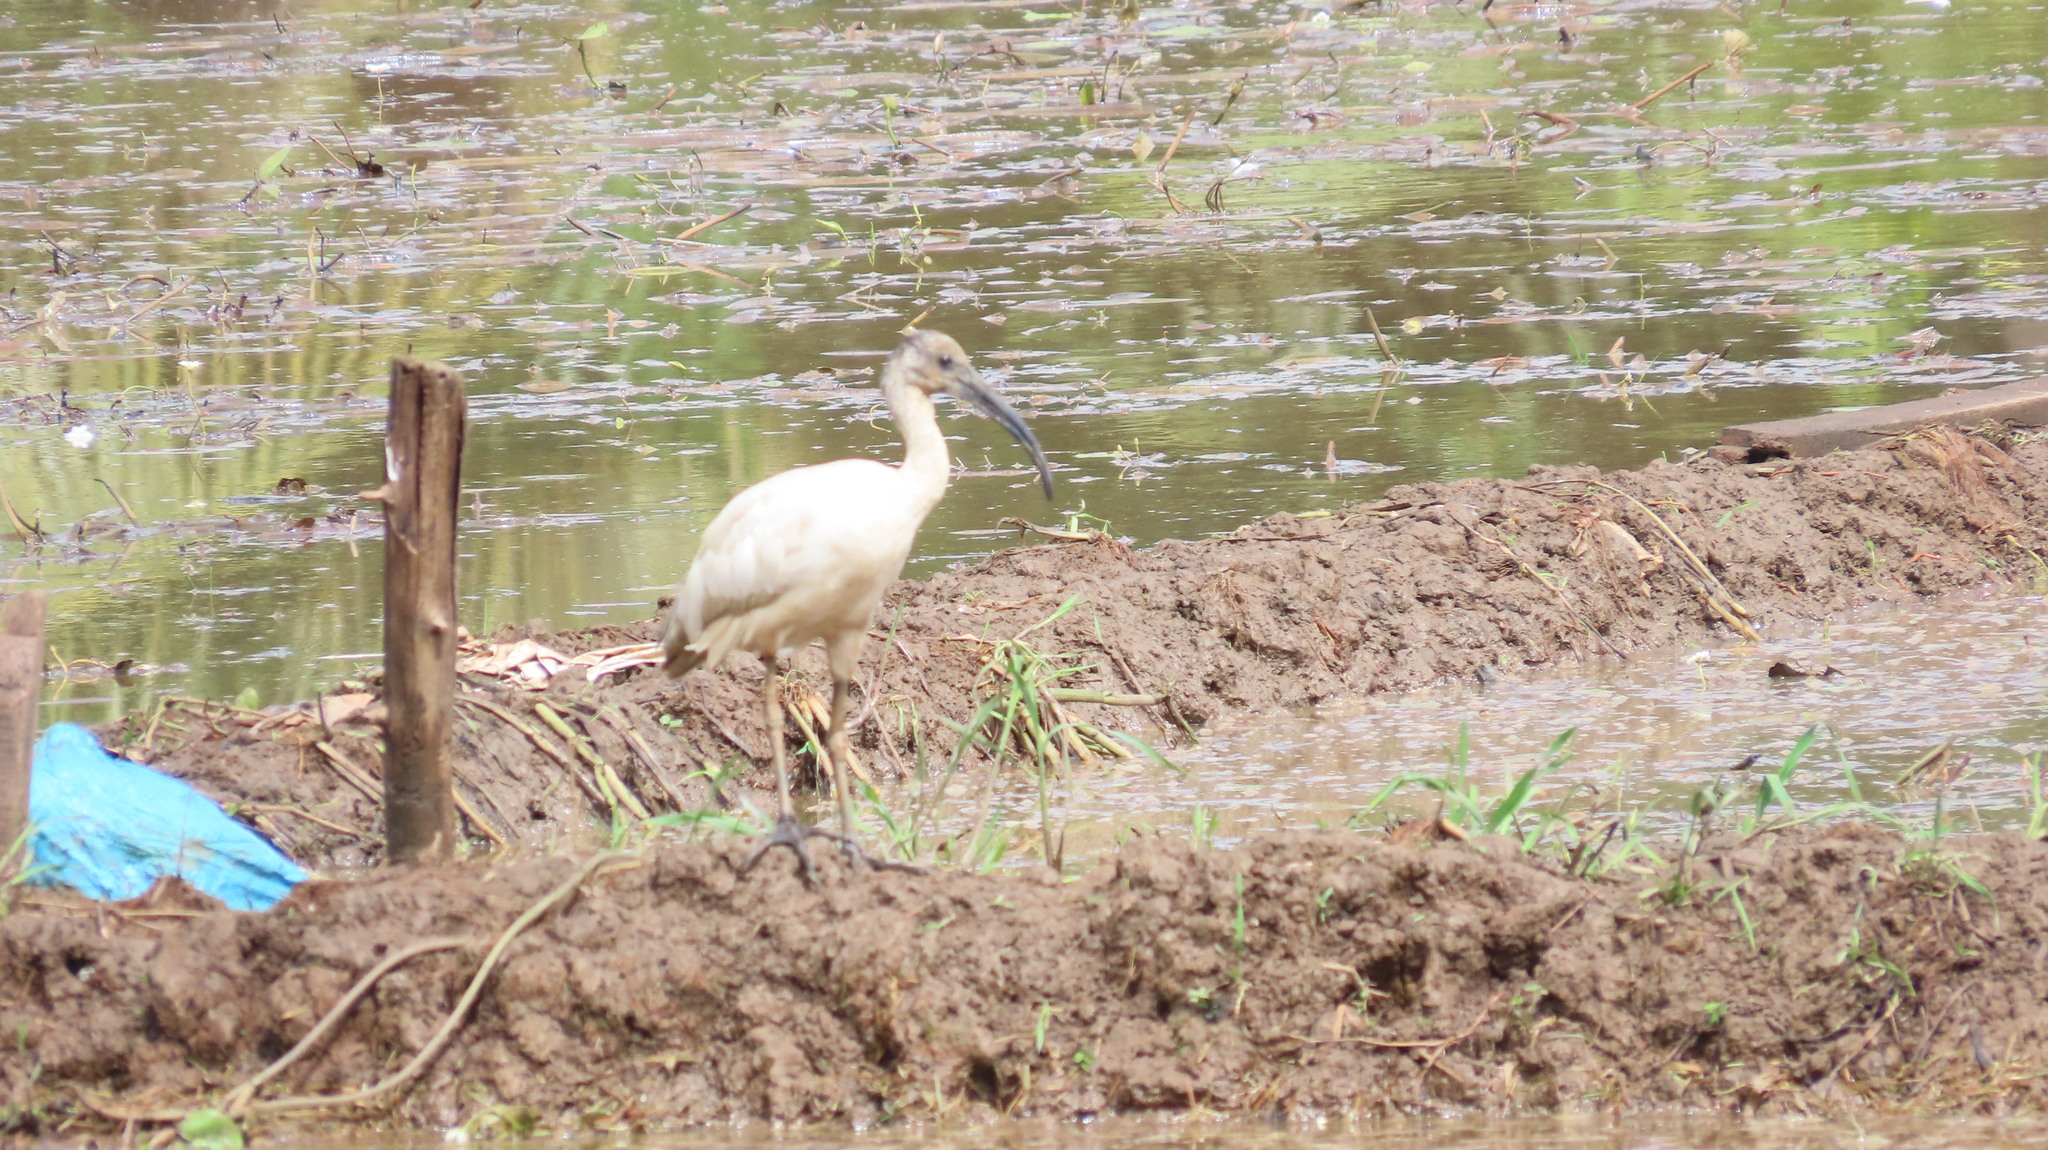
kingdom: Animalia
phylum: Chordata
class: Aves
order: Pelecaniformes
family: Threskiornithidae
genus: Threskiornis
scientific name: Threskiornis melanocephalus
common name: Black-headed ibis
